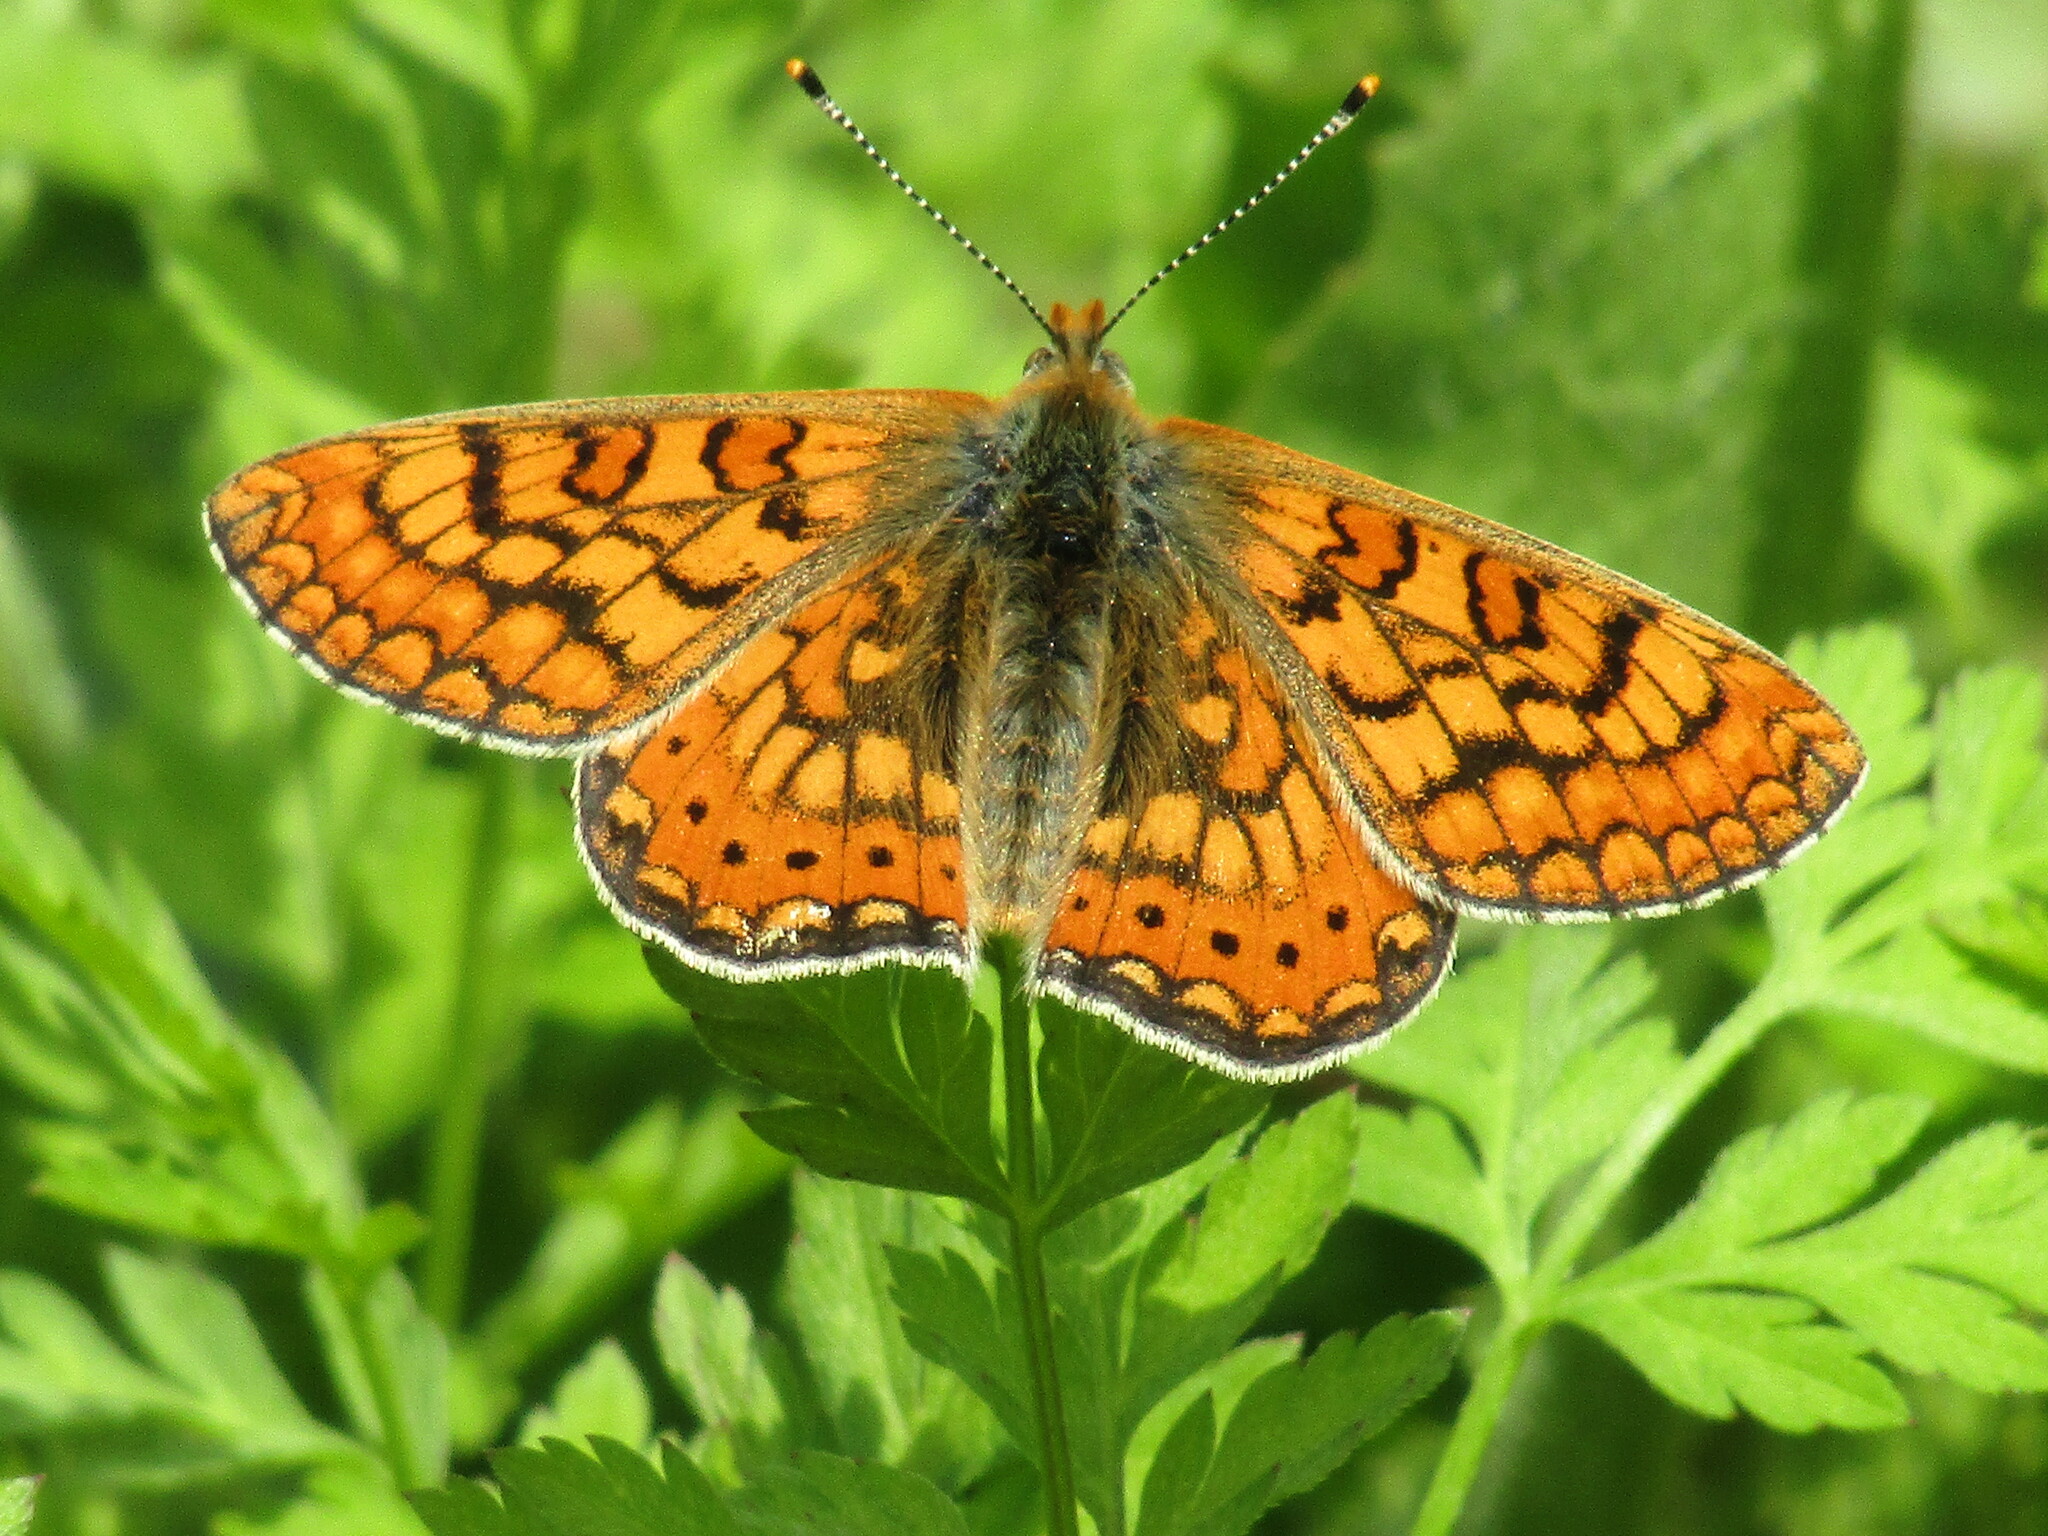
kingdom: Animalia
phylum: Arthropoda
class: Insecta
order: Lepidoptera
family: Nymphalidae
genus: Euphydryas
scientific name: Euphydryas aurinia
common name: Marsh fritillary
